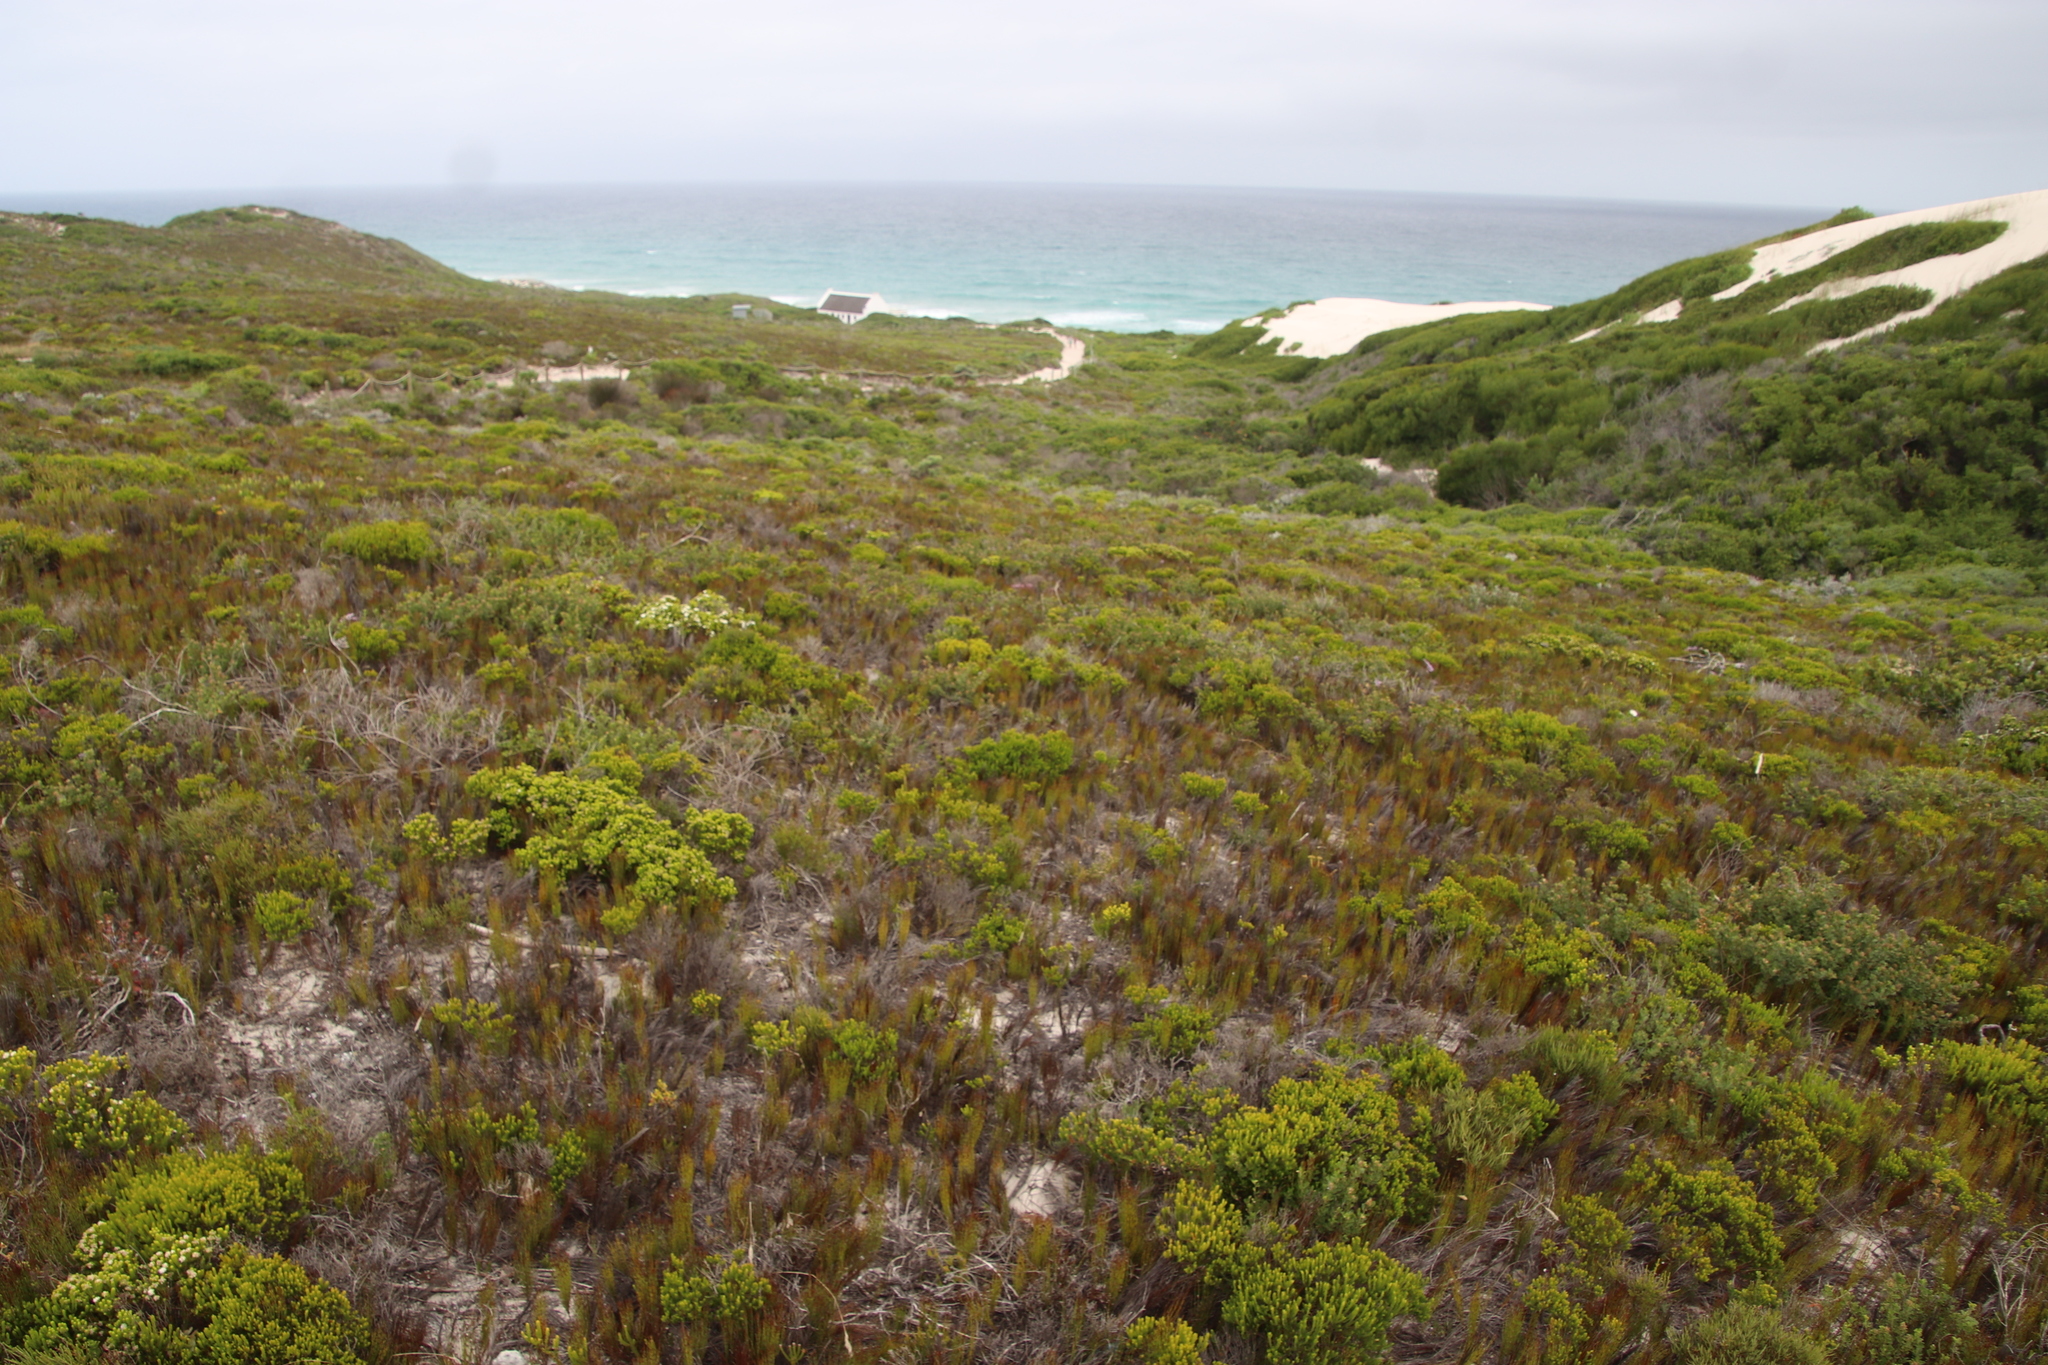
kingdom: Plantae
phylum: Tracheophyta
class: Liliopsida
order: Poales
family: Restionaceae
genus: Elegia
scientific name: Elegia microcarpa
